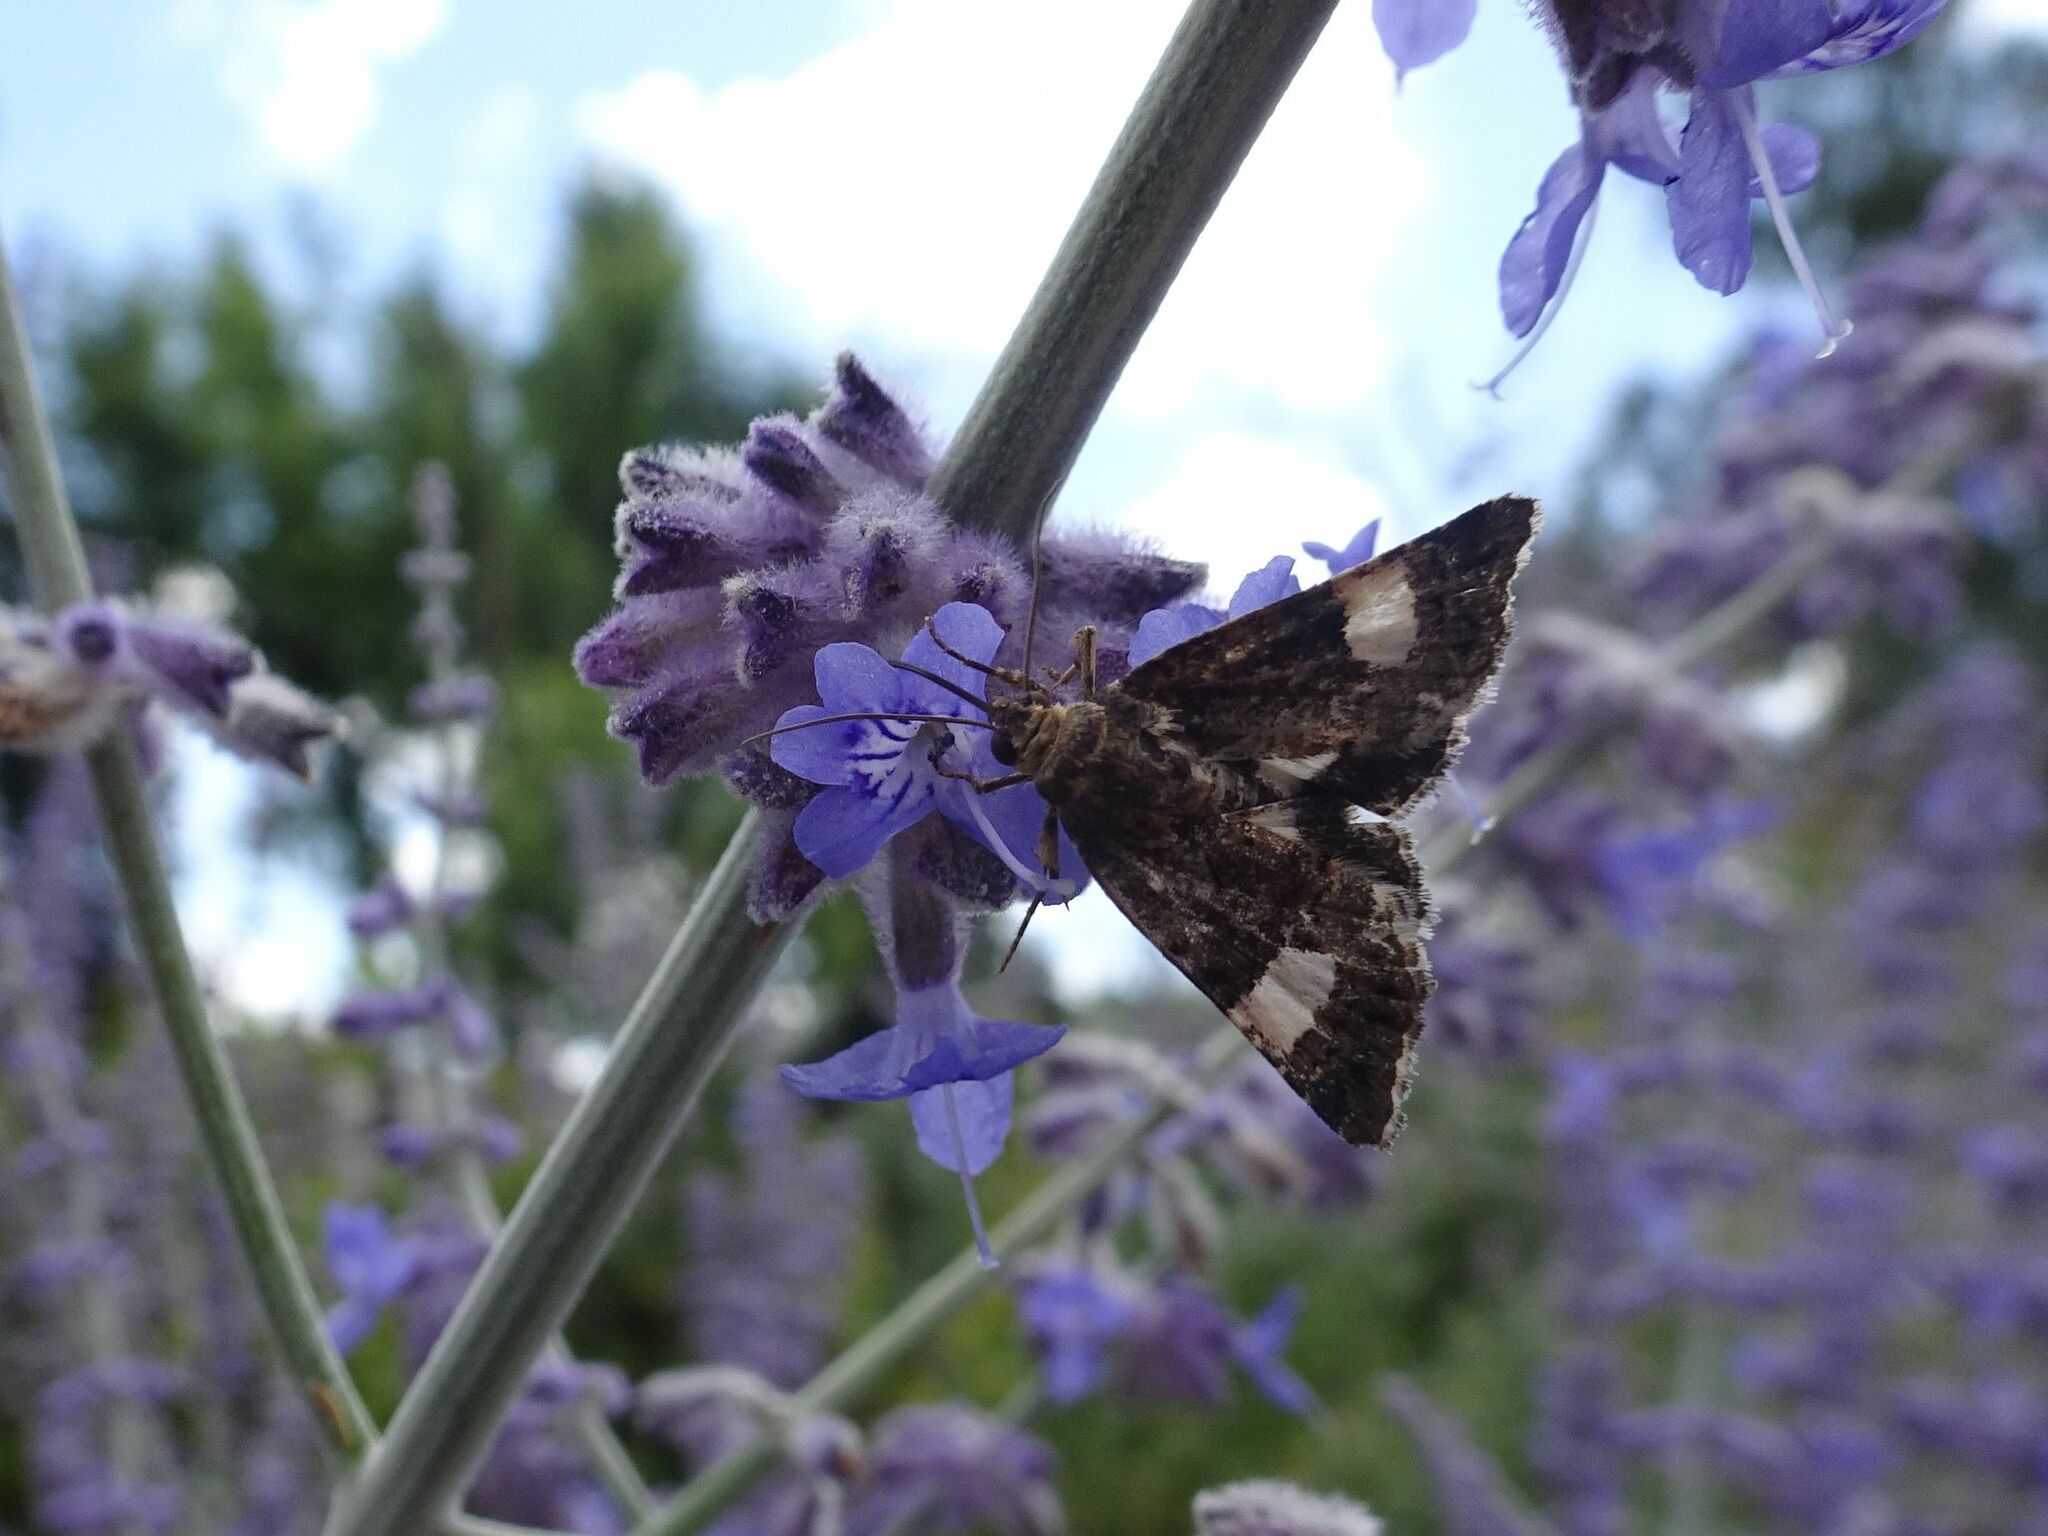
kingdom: Animalia
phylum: Arthropoda
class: Insecta
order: Lepidoptera
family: Erebidae
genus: Tyta
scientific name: Tyta luctuosa
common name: Four-spotted
